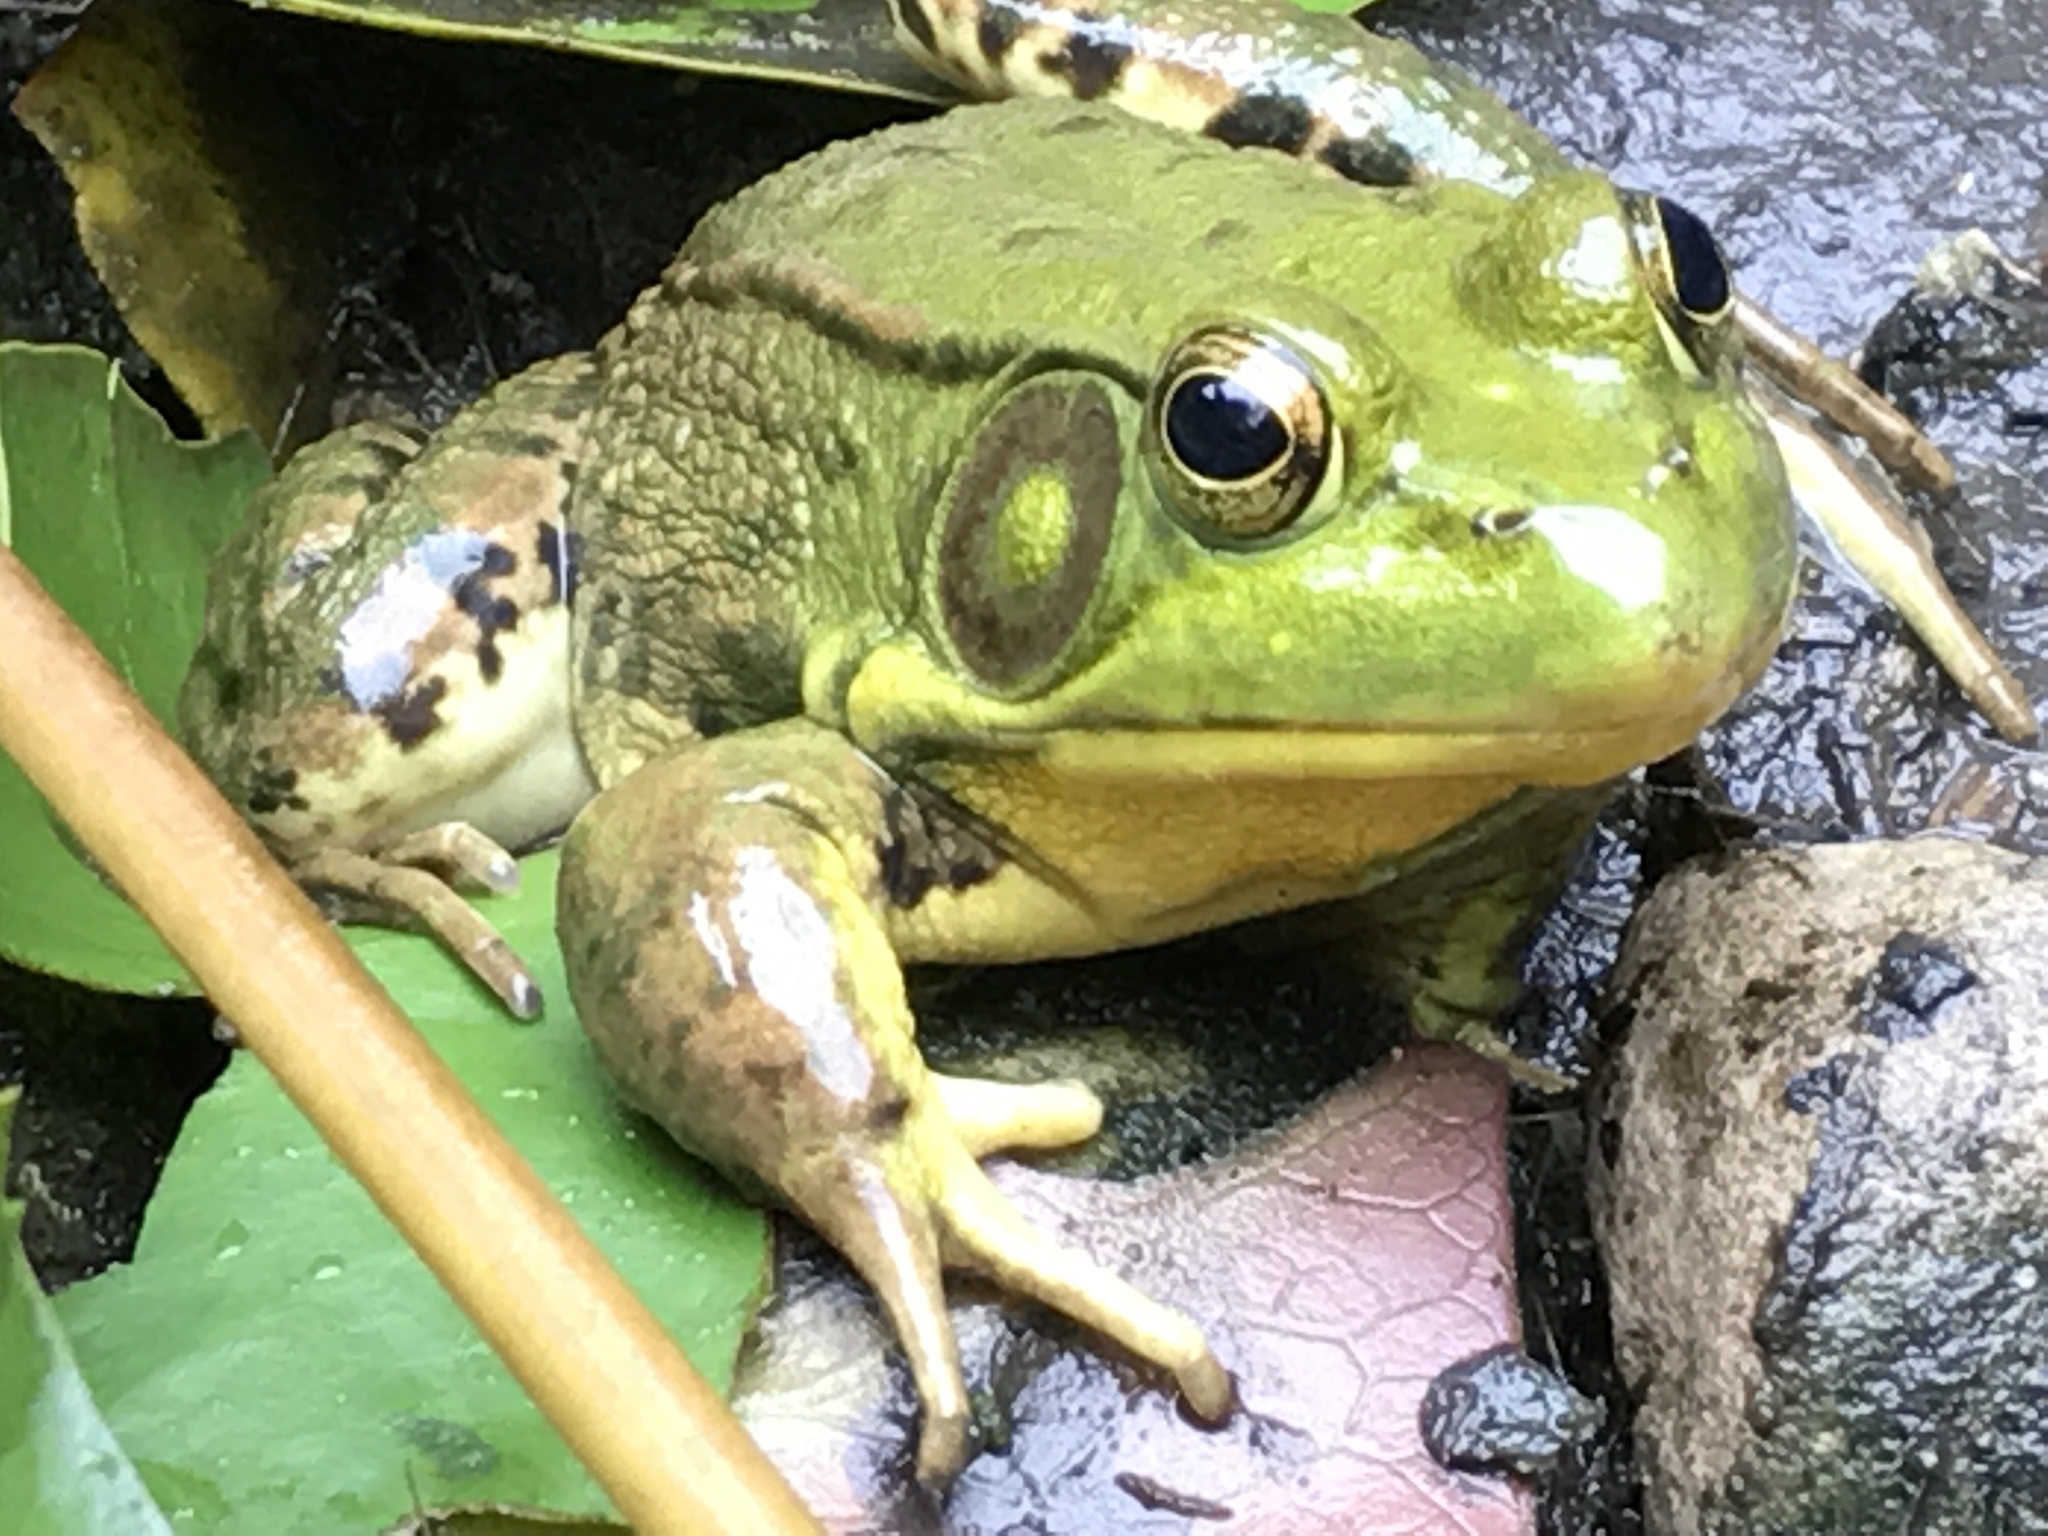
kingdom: Animalia
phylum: Chordata
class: Amphibia
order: Anura
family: Ranidae
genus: Lithobates
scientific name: Lithobates clamitans
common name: Green frog
